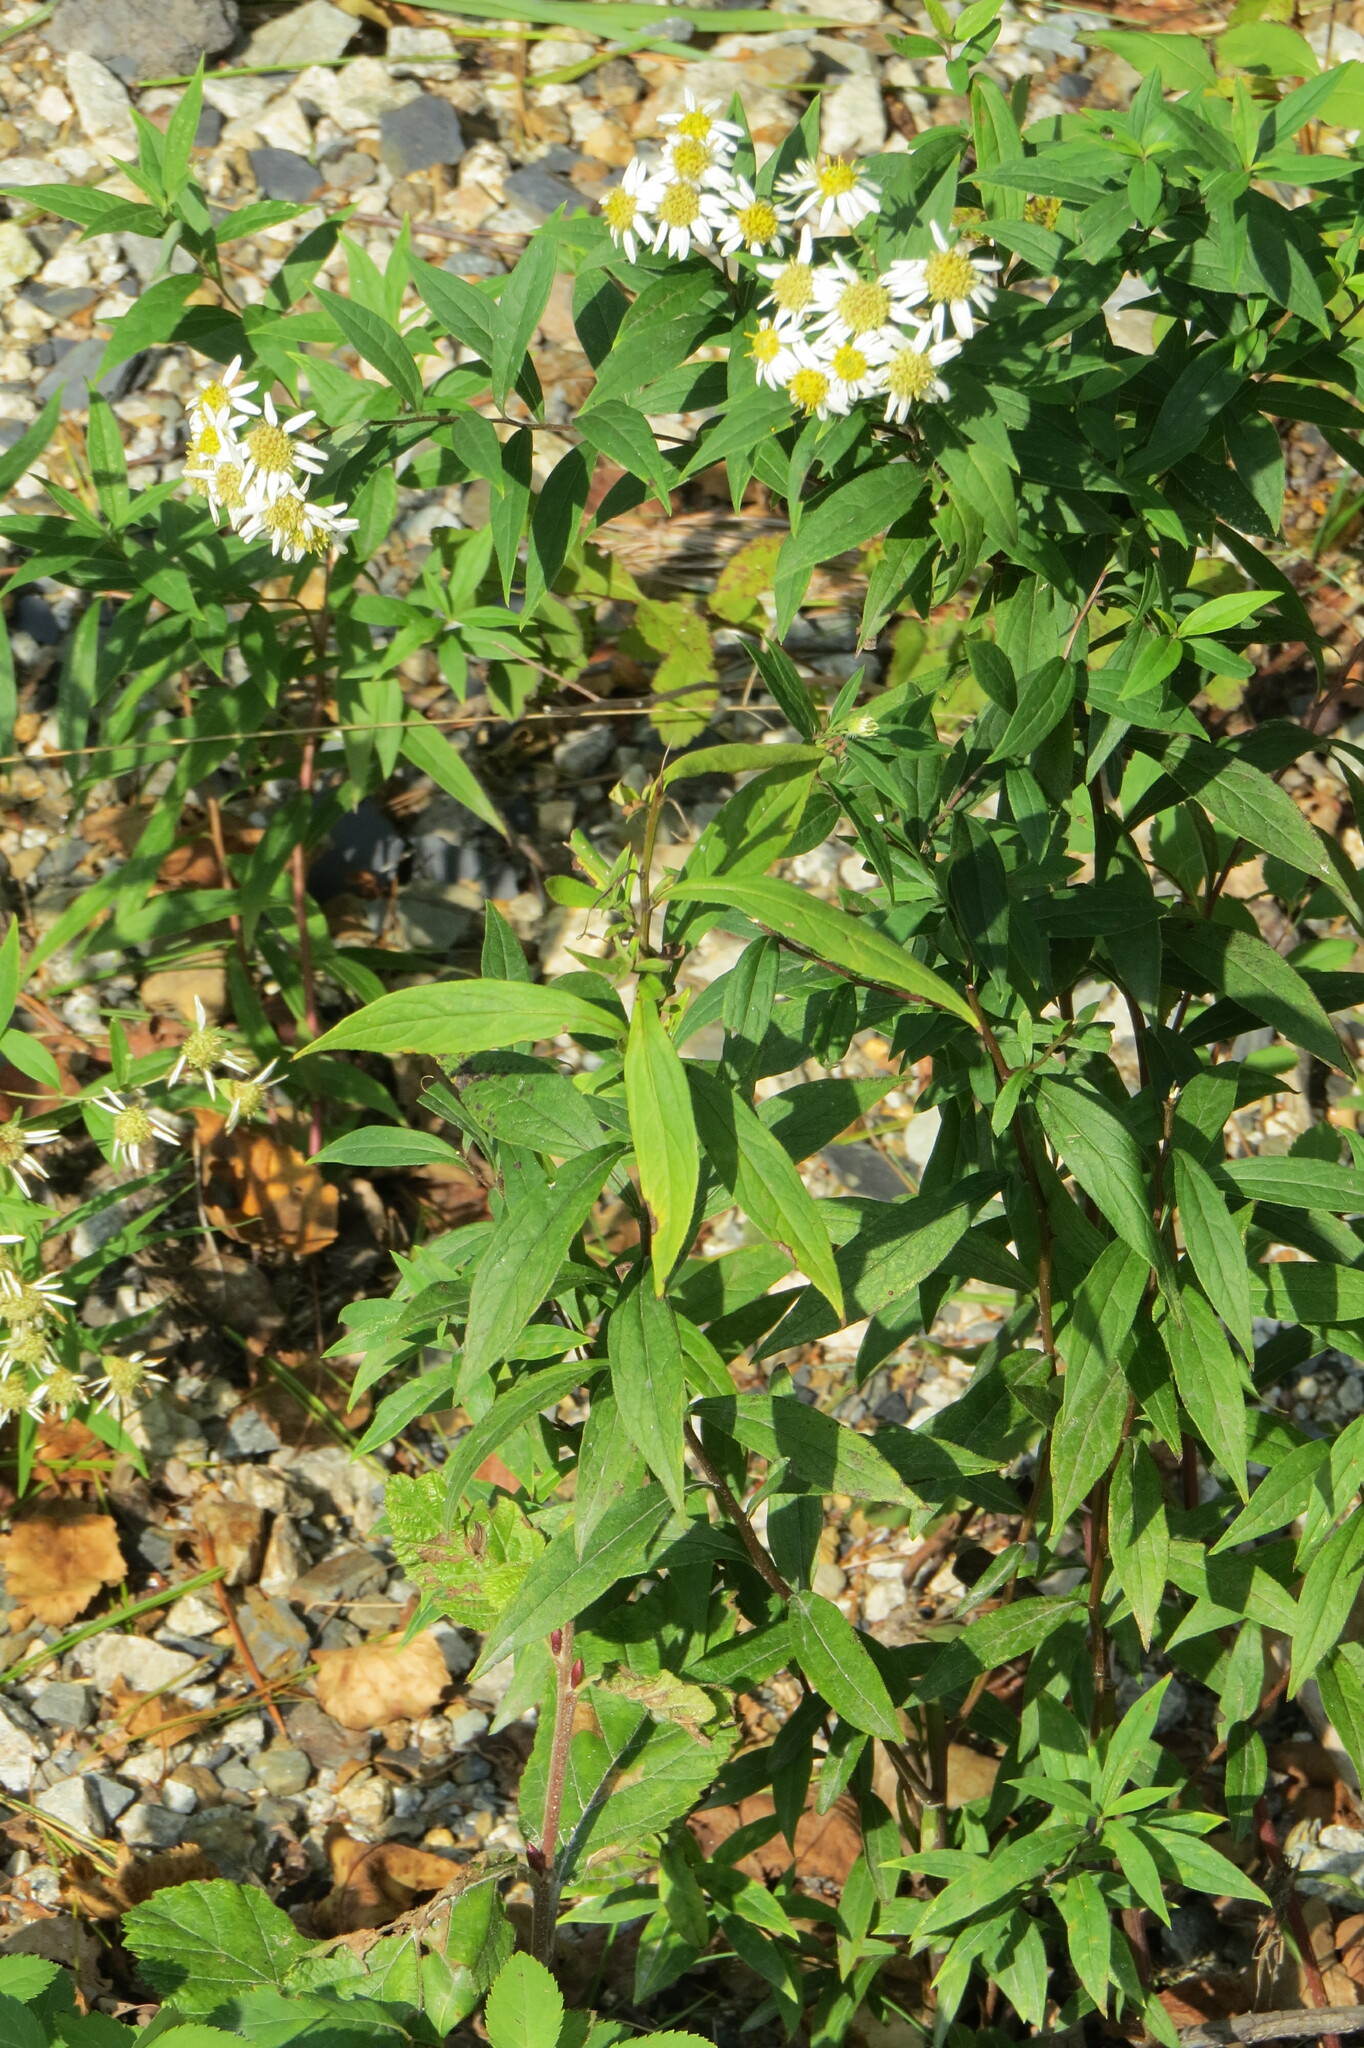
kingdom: Plantae
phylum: Tracheophyta
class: Magnoliopsida
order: Asterales
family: Asteraceae
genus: Doellingeria
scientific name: Doellingeria umbellata
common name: Flat-top white aster
